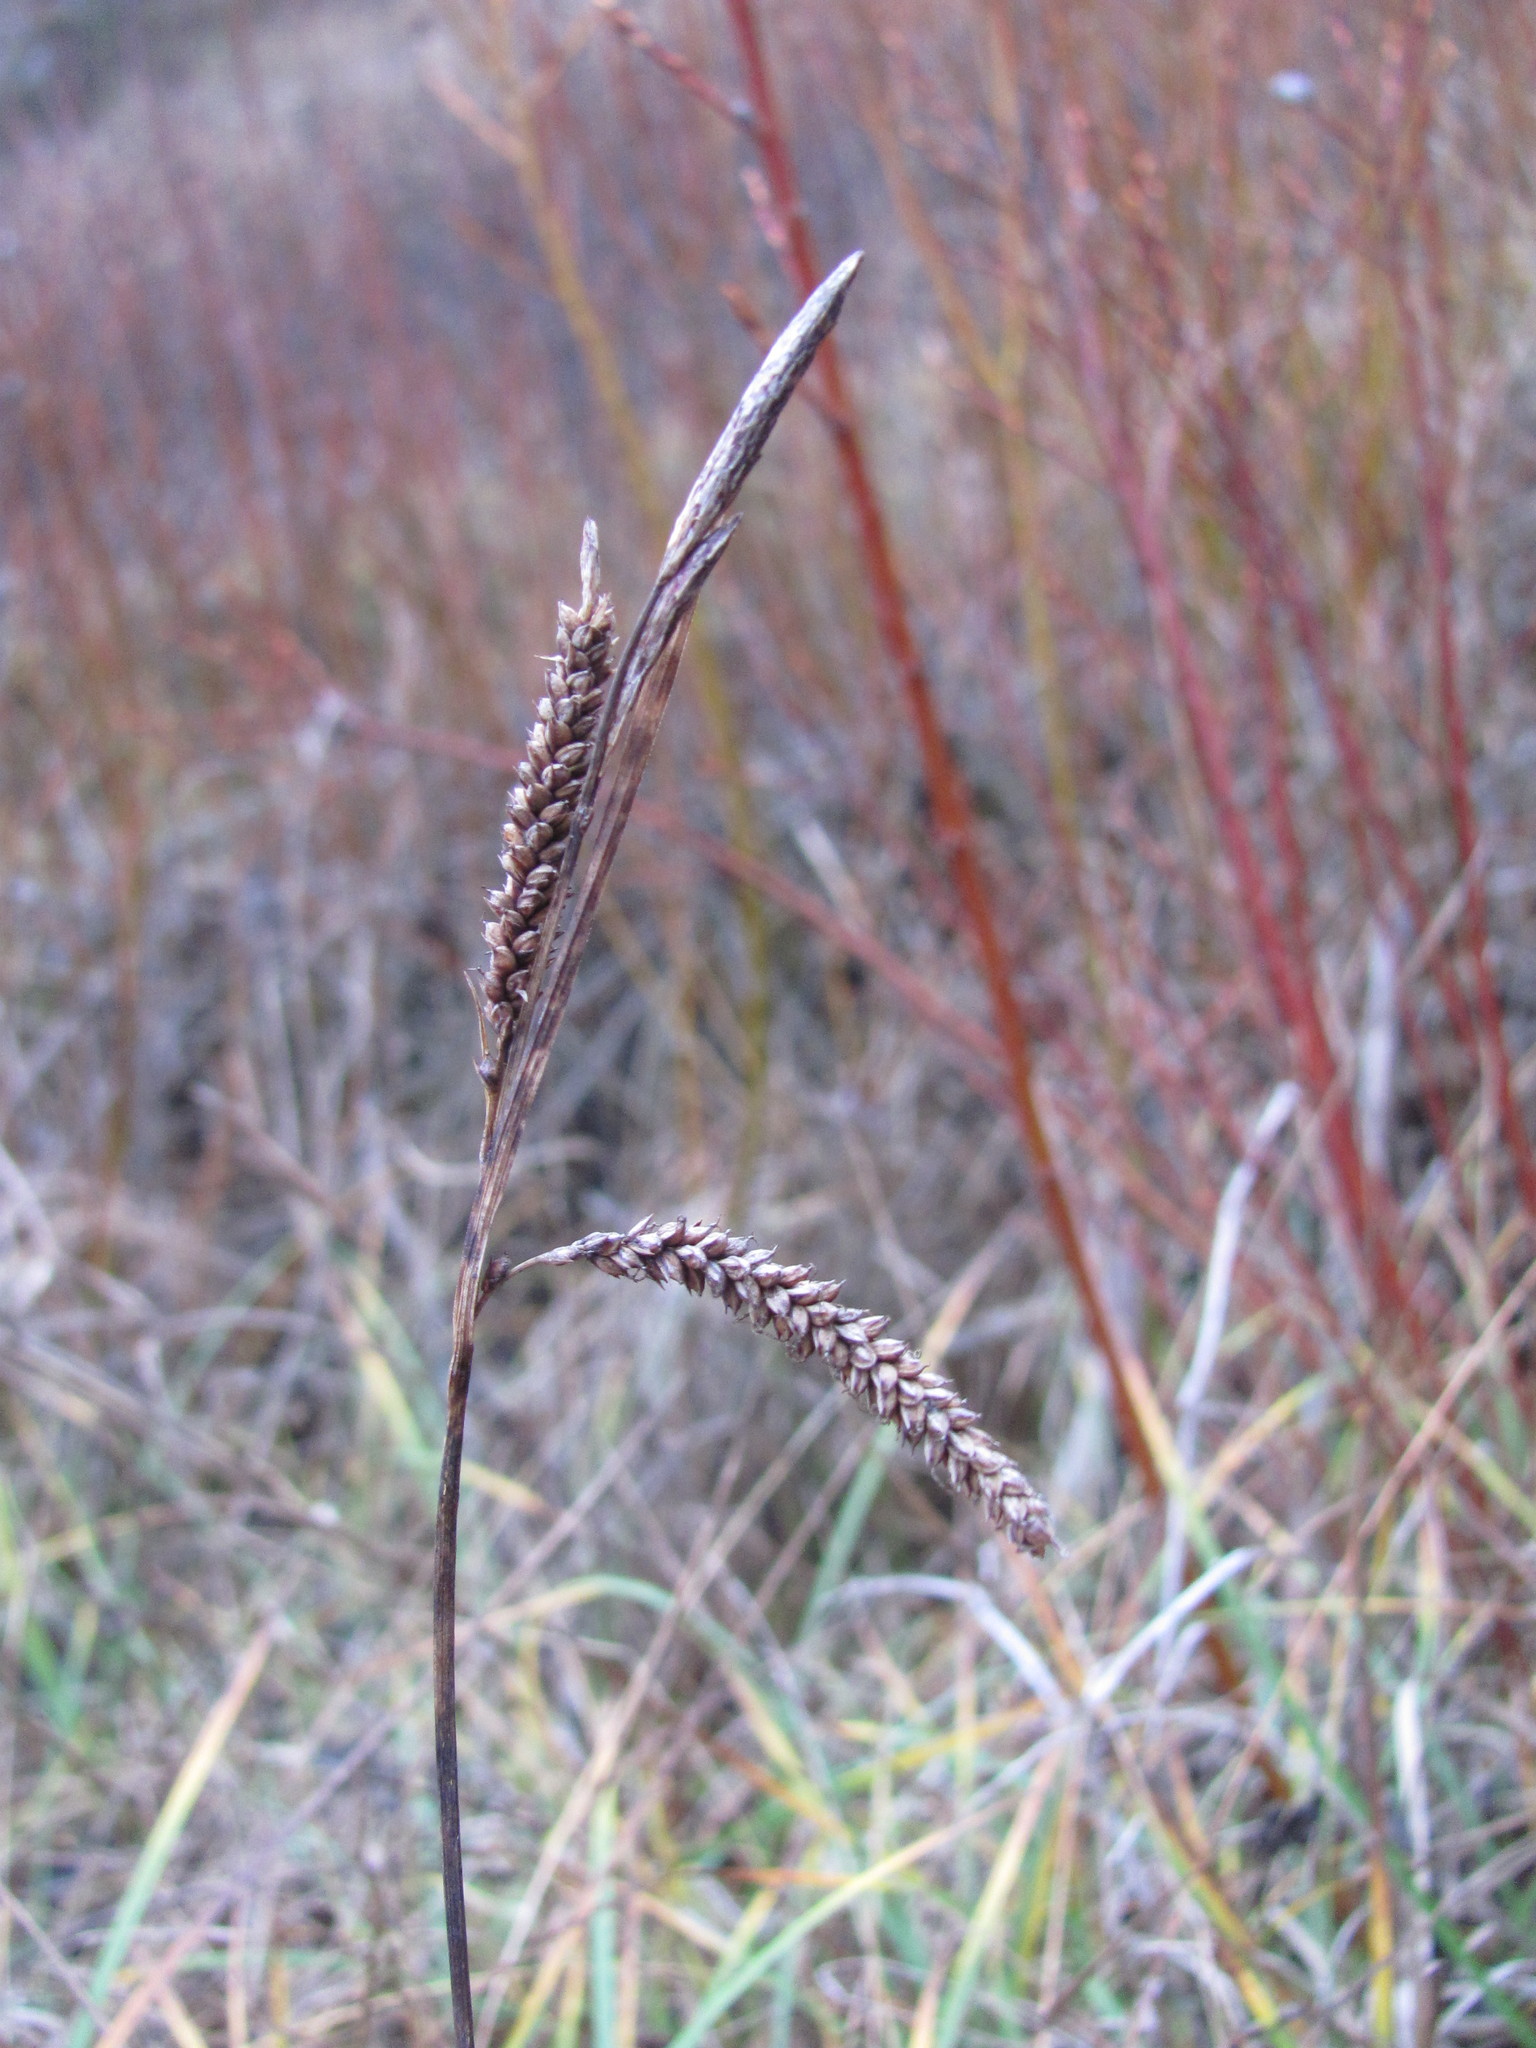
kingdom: Plantae
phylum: Tracheophyta
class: Liliopsida
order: Poales
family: Cyperaceae
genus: Carex
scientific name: Carex flacca
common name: Glaucous sedge
